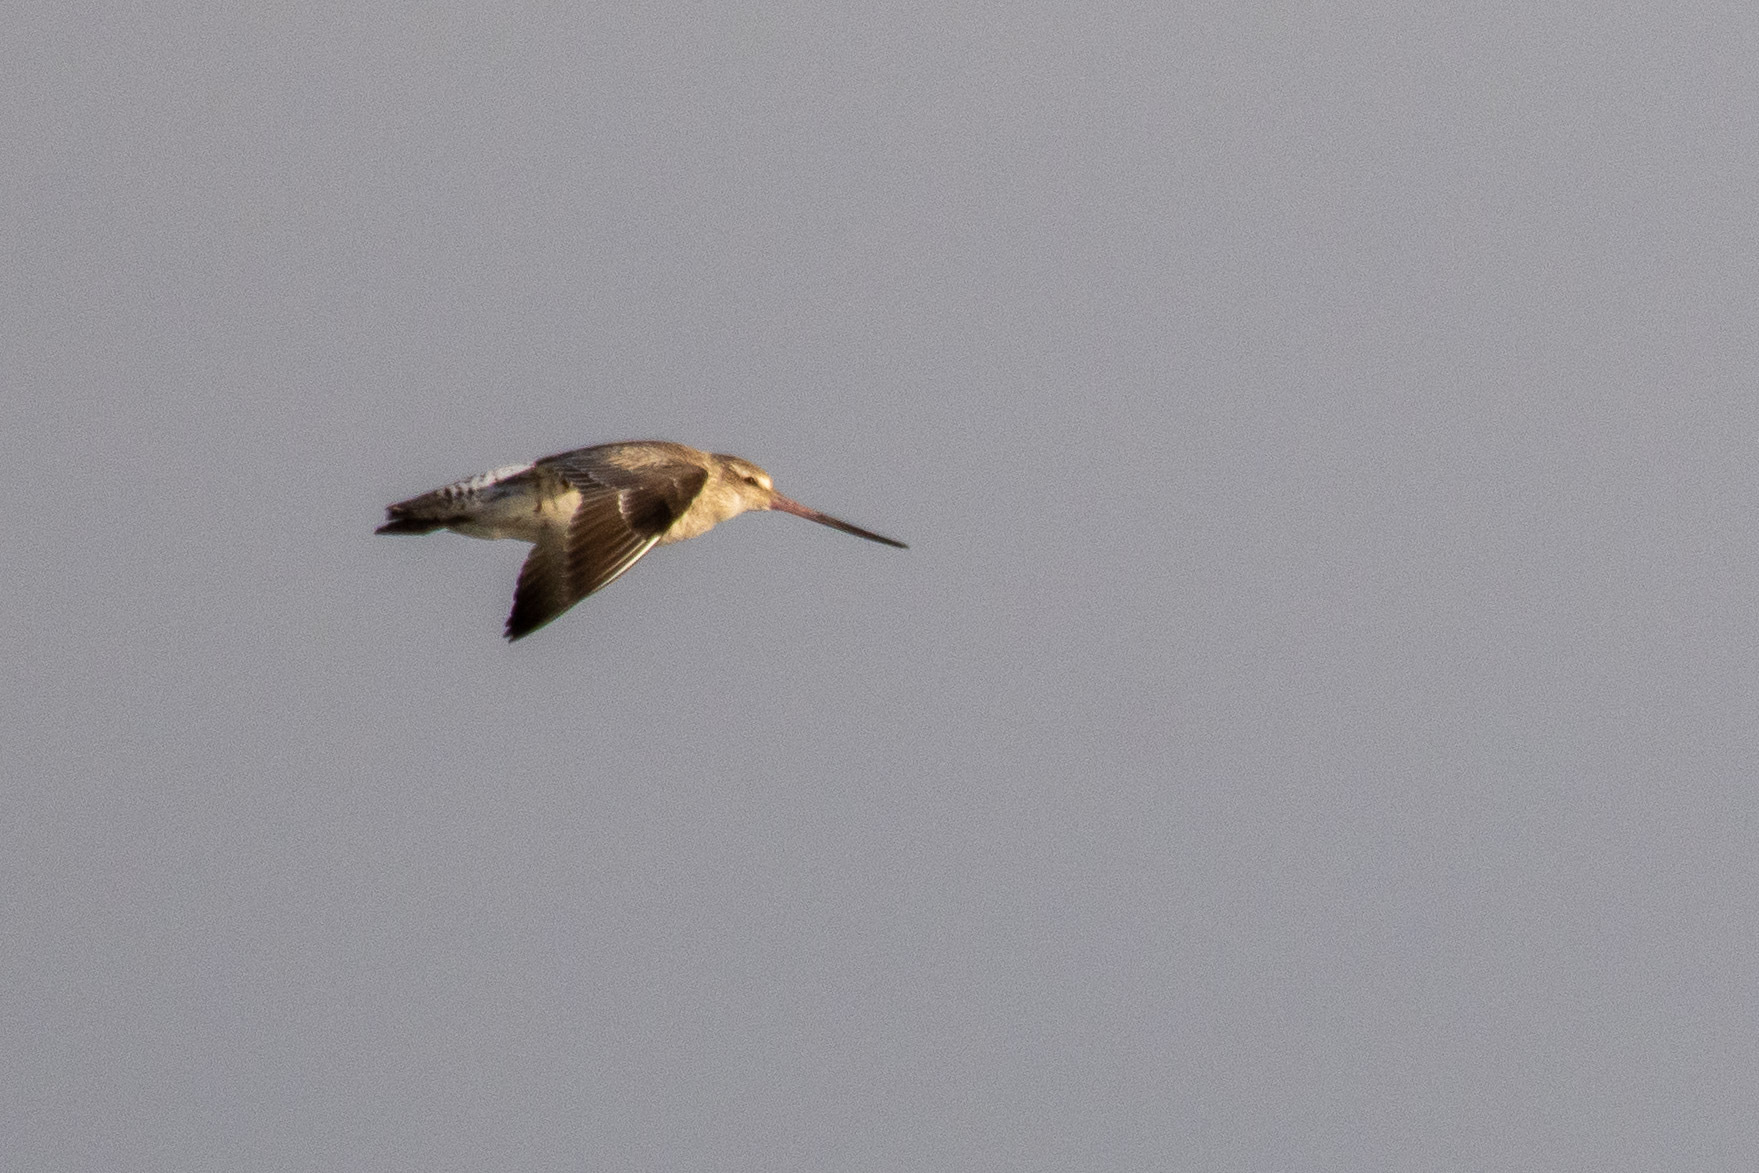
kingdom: Animalia
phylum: Chordata
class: Aves
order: Charadriiformes
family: Scolopacidae
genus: Limosa
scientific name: Limosa lapponica
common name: Bar-tailed godwit
